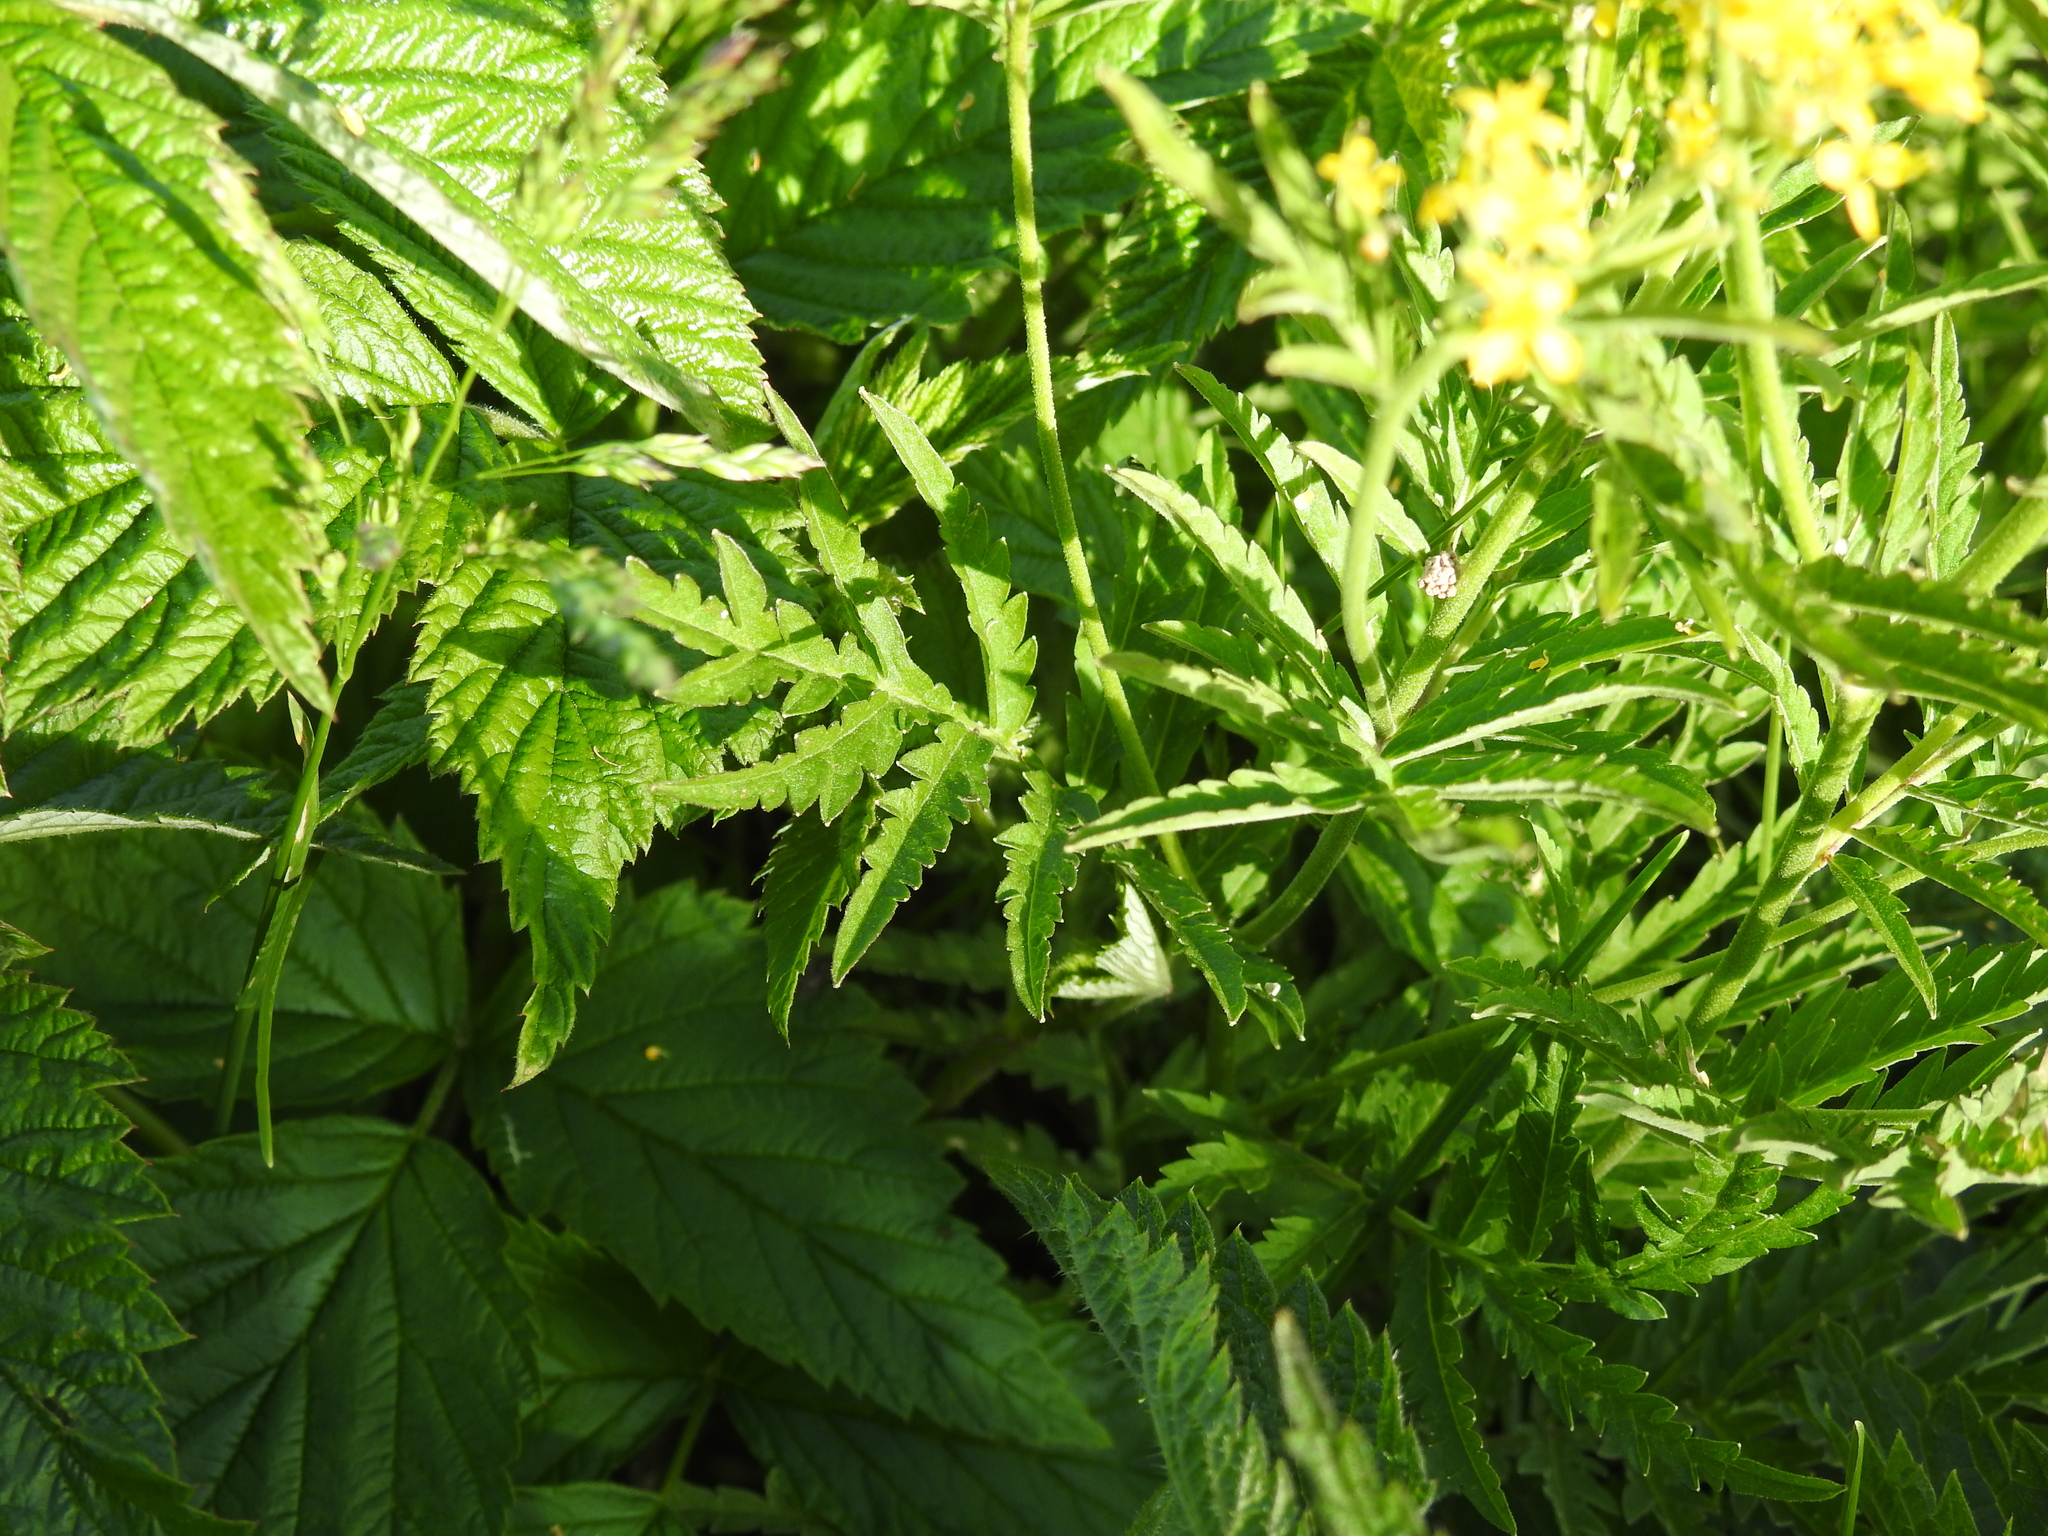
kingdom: Plantae
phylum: Tracheophyta
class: Magnoliopsida
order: Brassicales
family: Brassicaceae
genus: Descurainia
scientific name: Descurainia tanacetifolia
